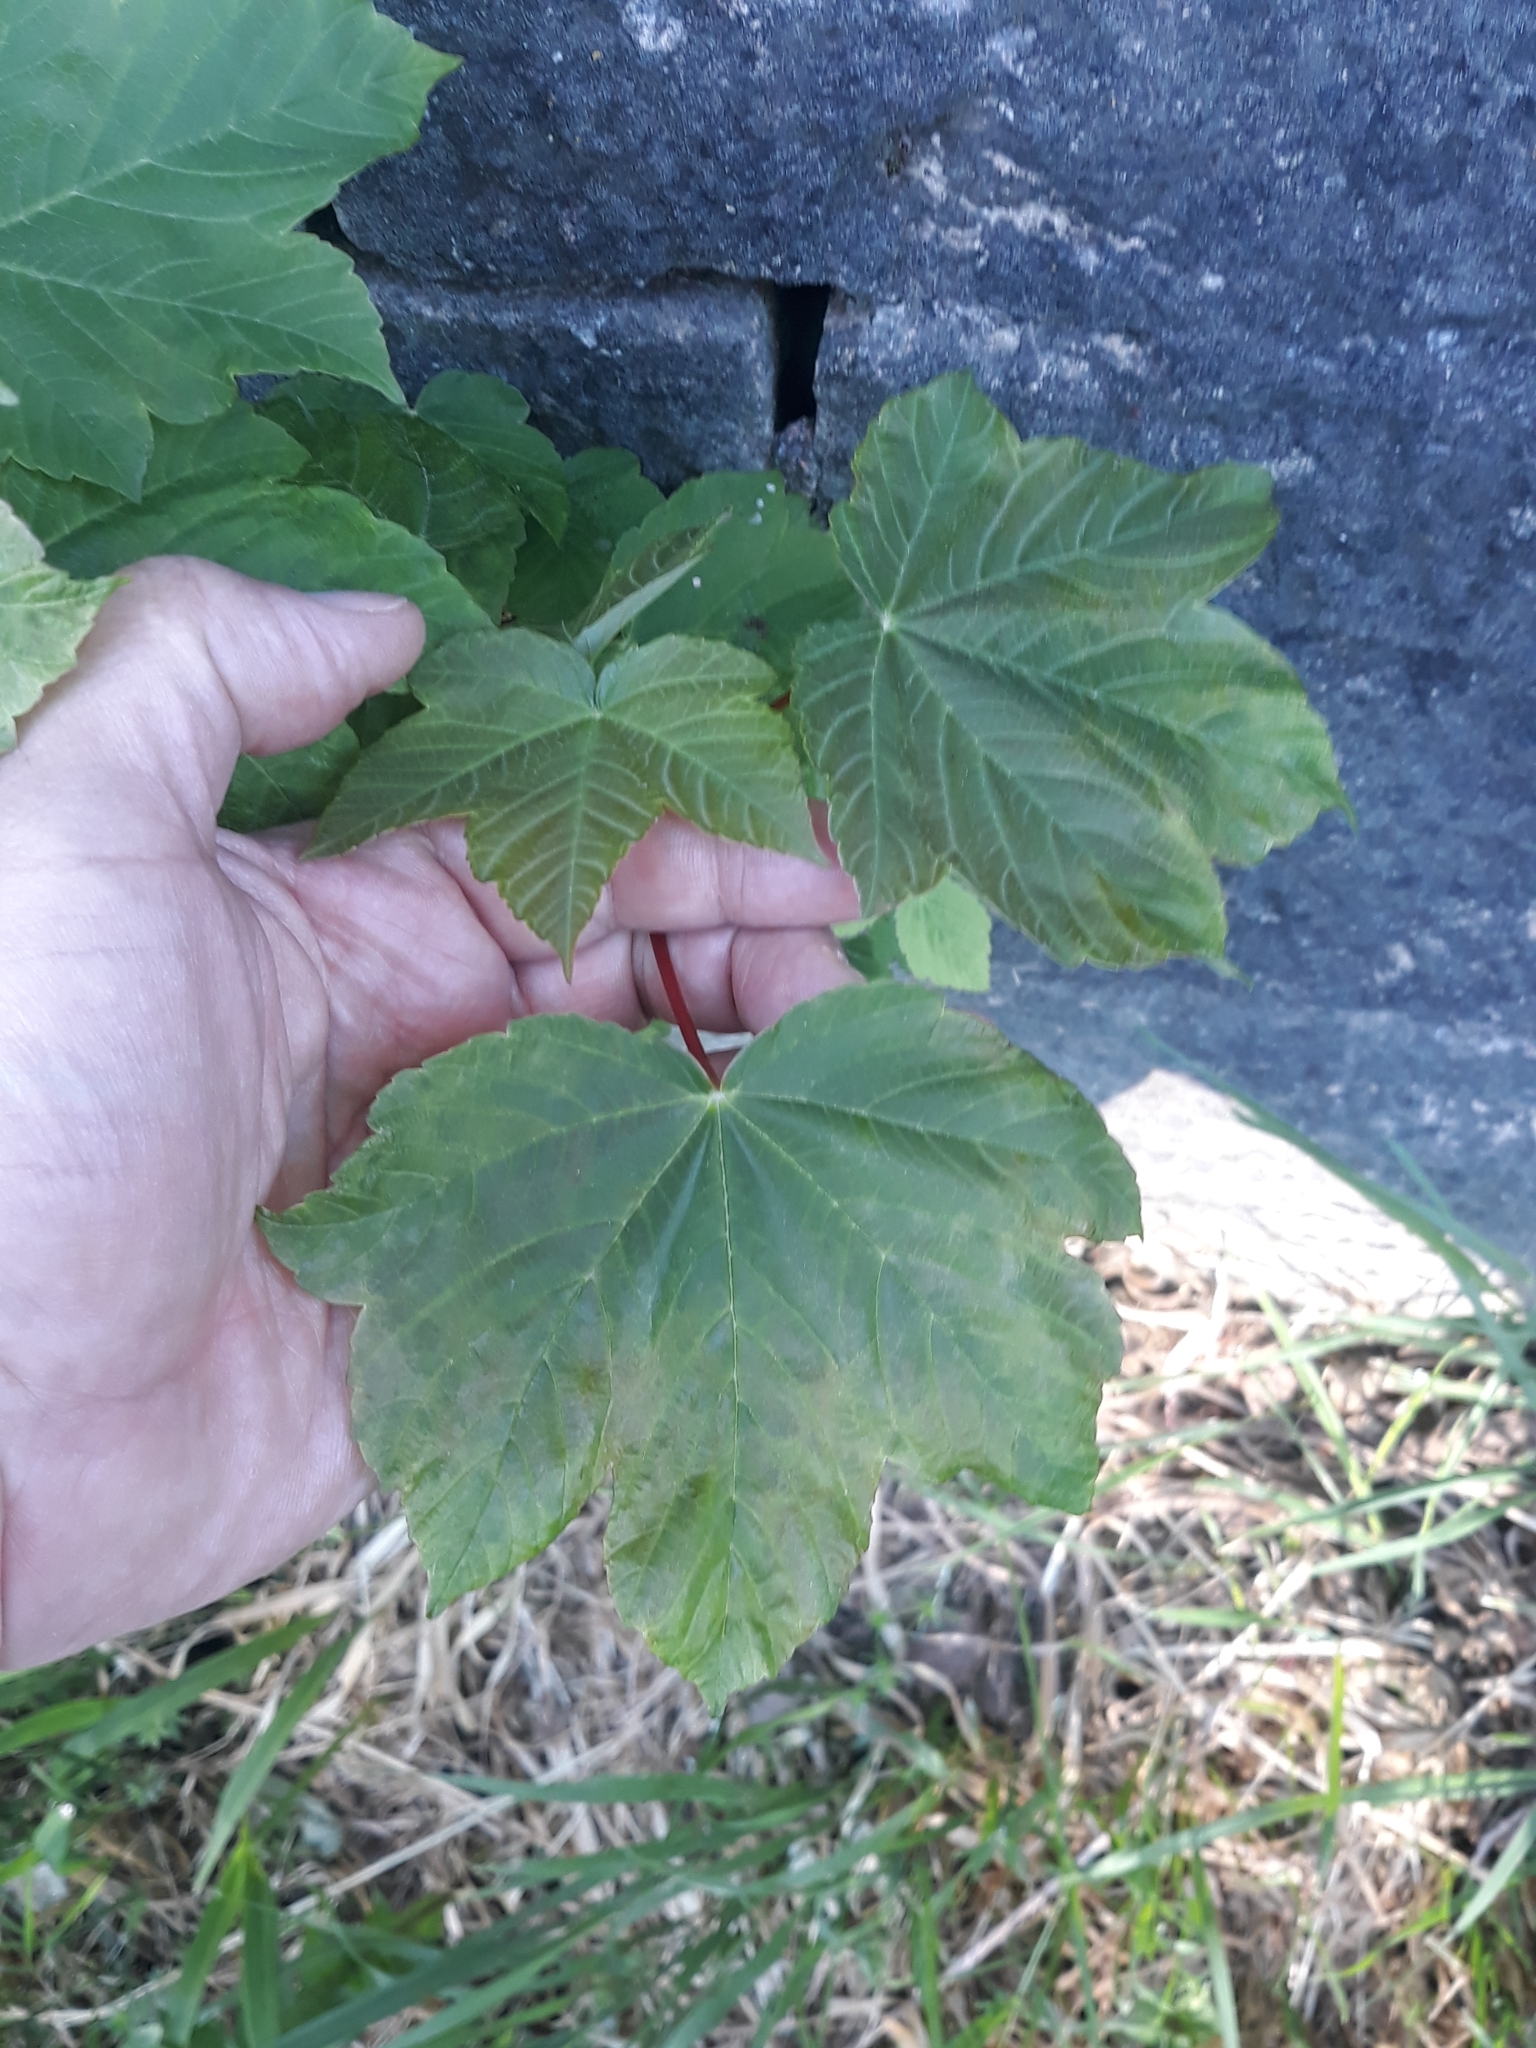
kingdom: Plantae
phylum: Tracheophyta
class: Magnoliopsida
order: Sapindales
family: Sapindaceae
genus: Acer
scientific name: Acer pseudoplatanus
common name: Sycamore
